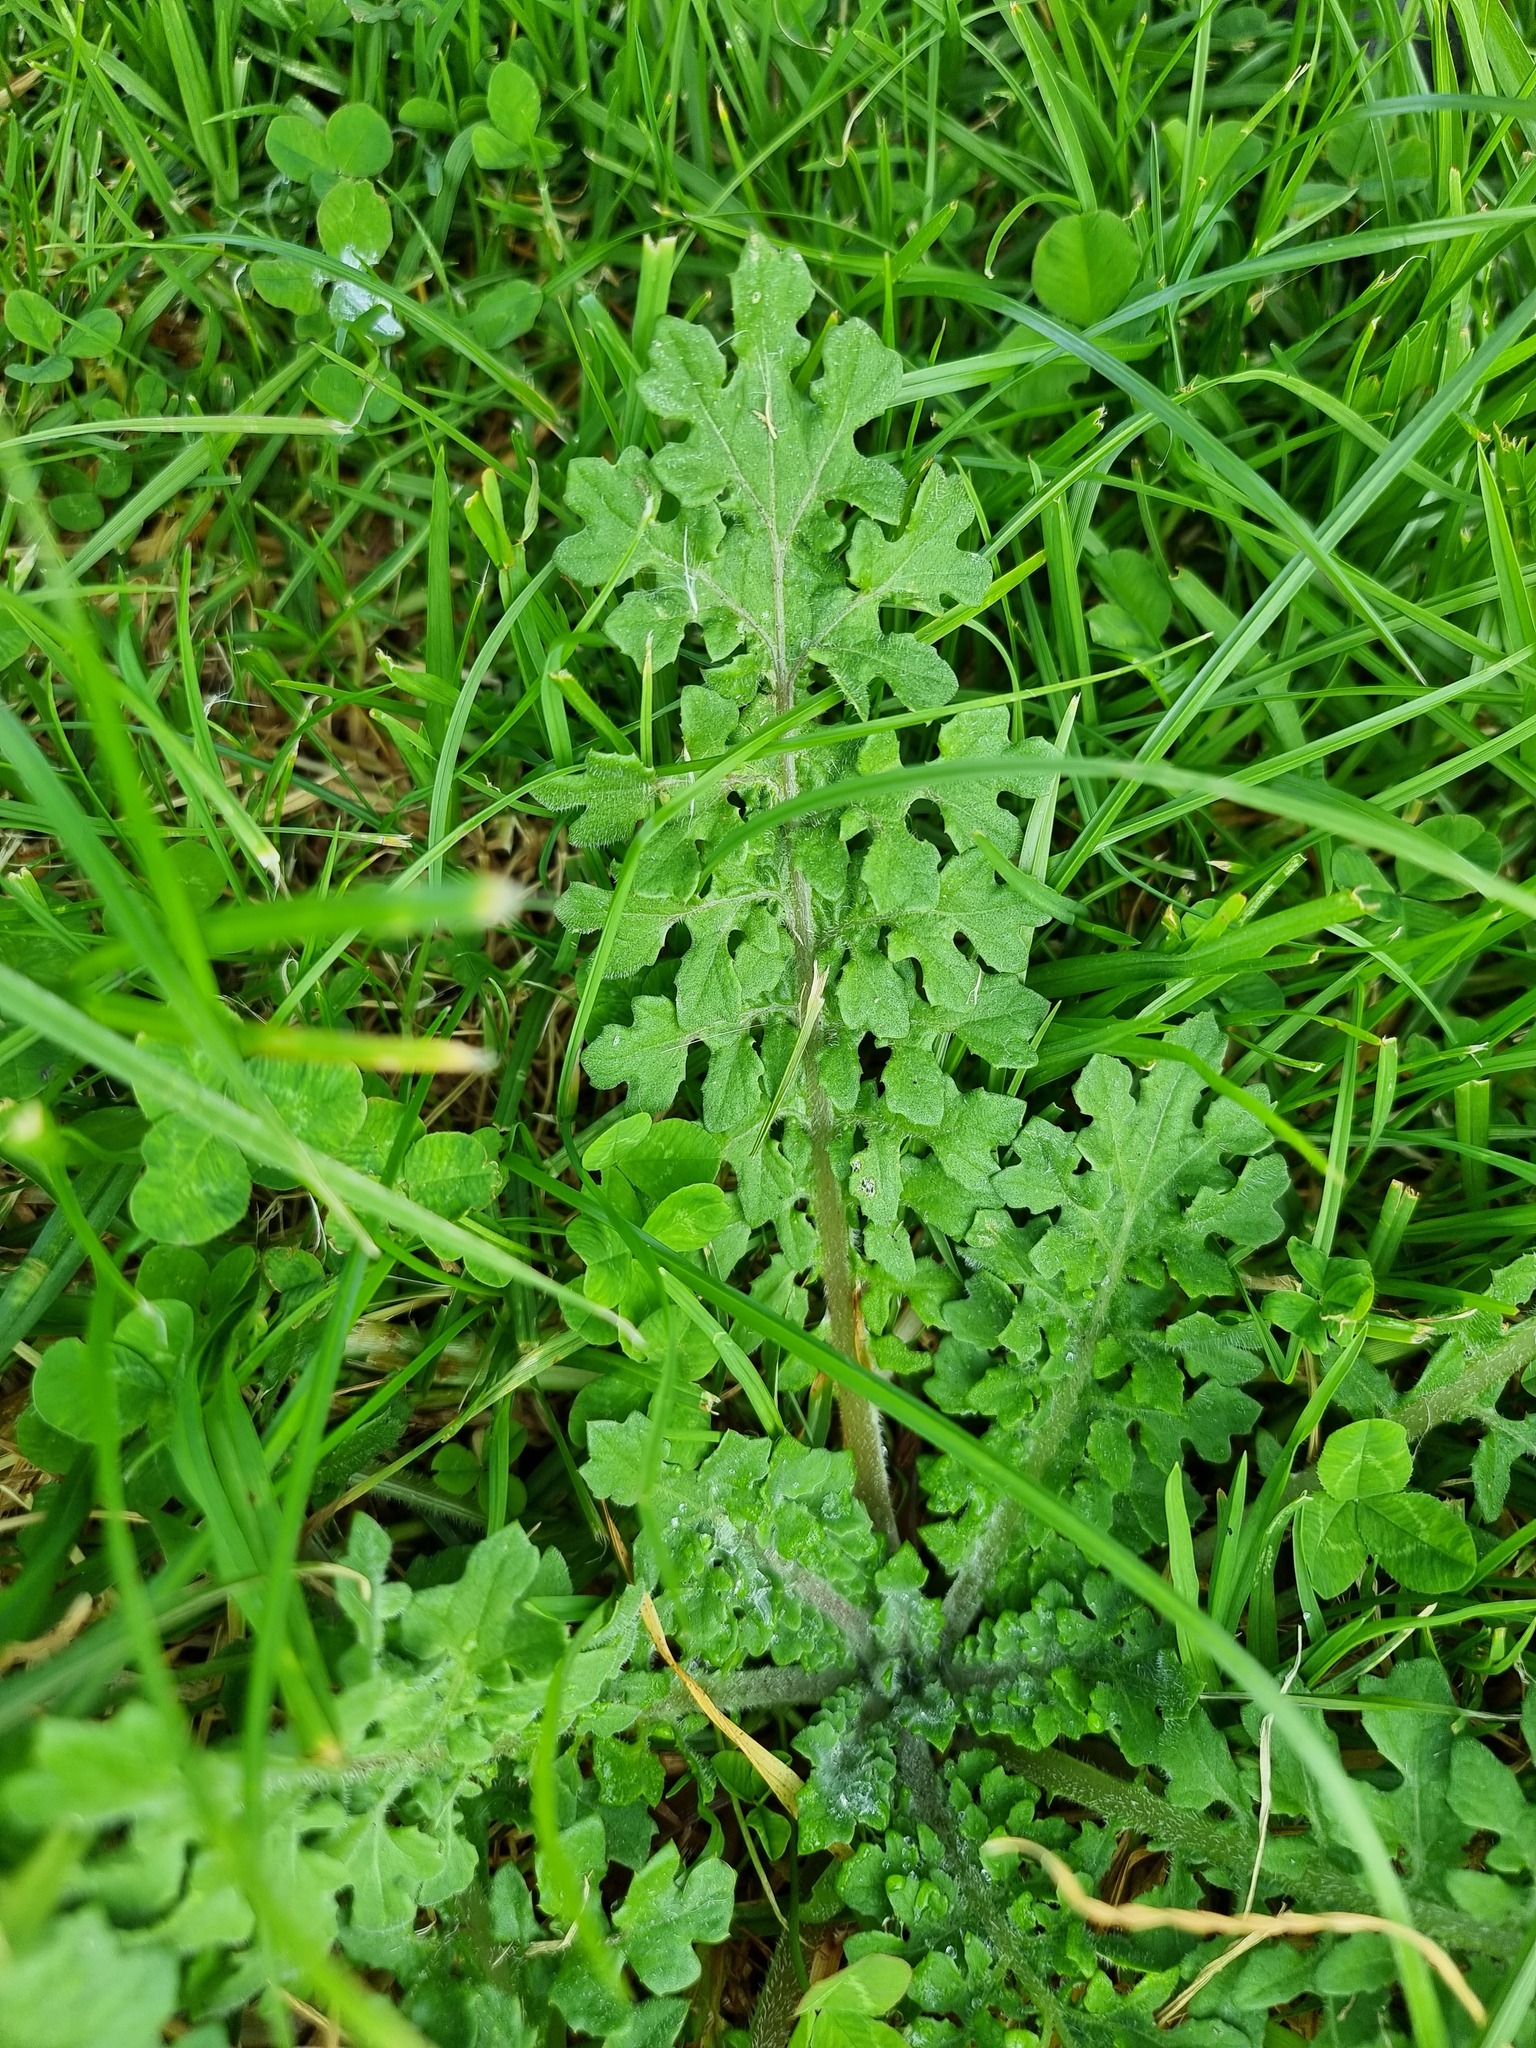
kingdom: Plantae
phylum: Tracheophyta
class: Magnoliopsida
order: Asterales
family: Asteraceae
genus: Arctotheca
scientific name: Arctotheca calendula
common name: Capeweed
